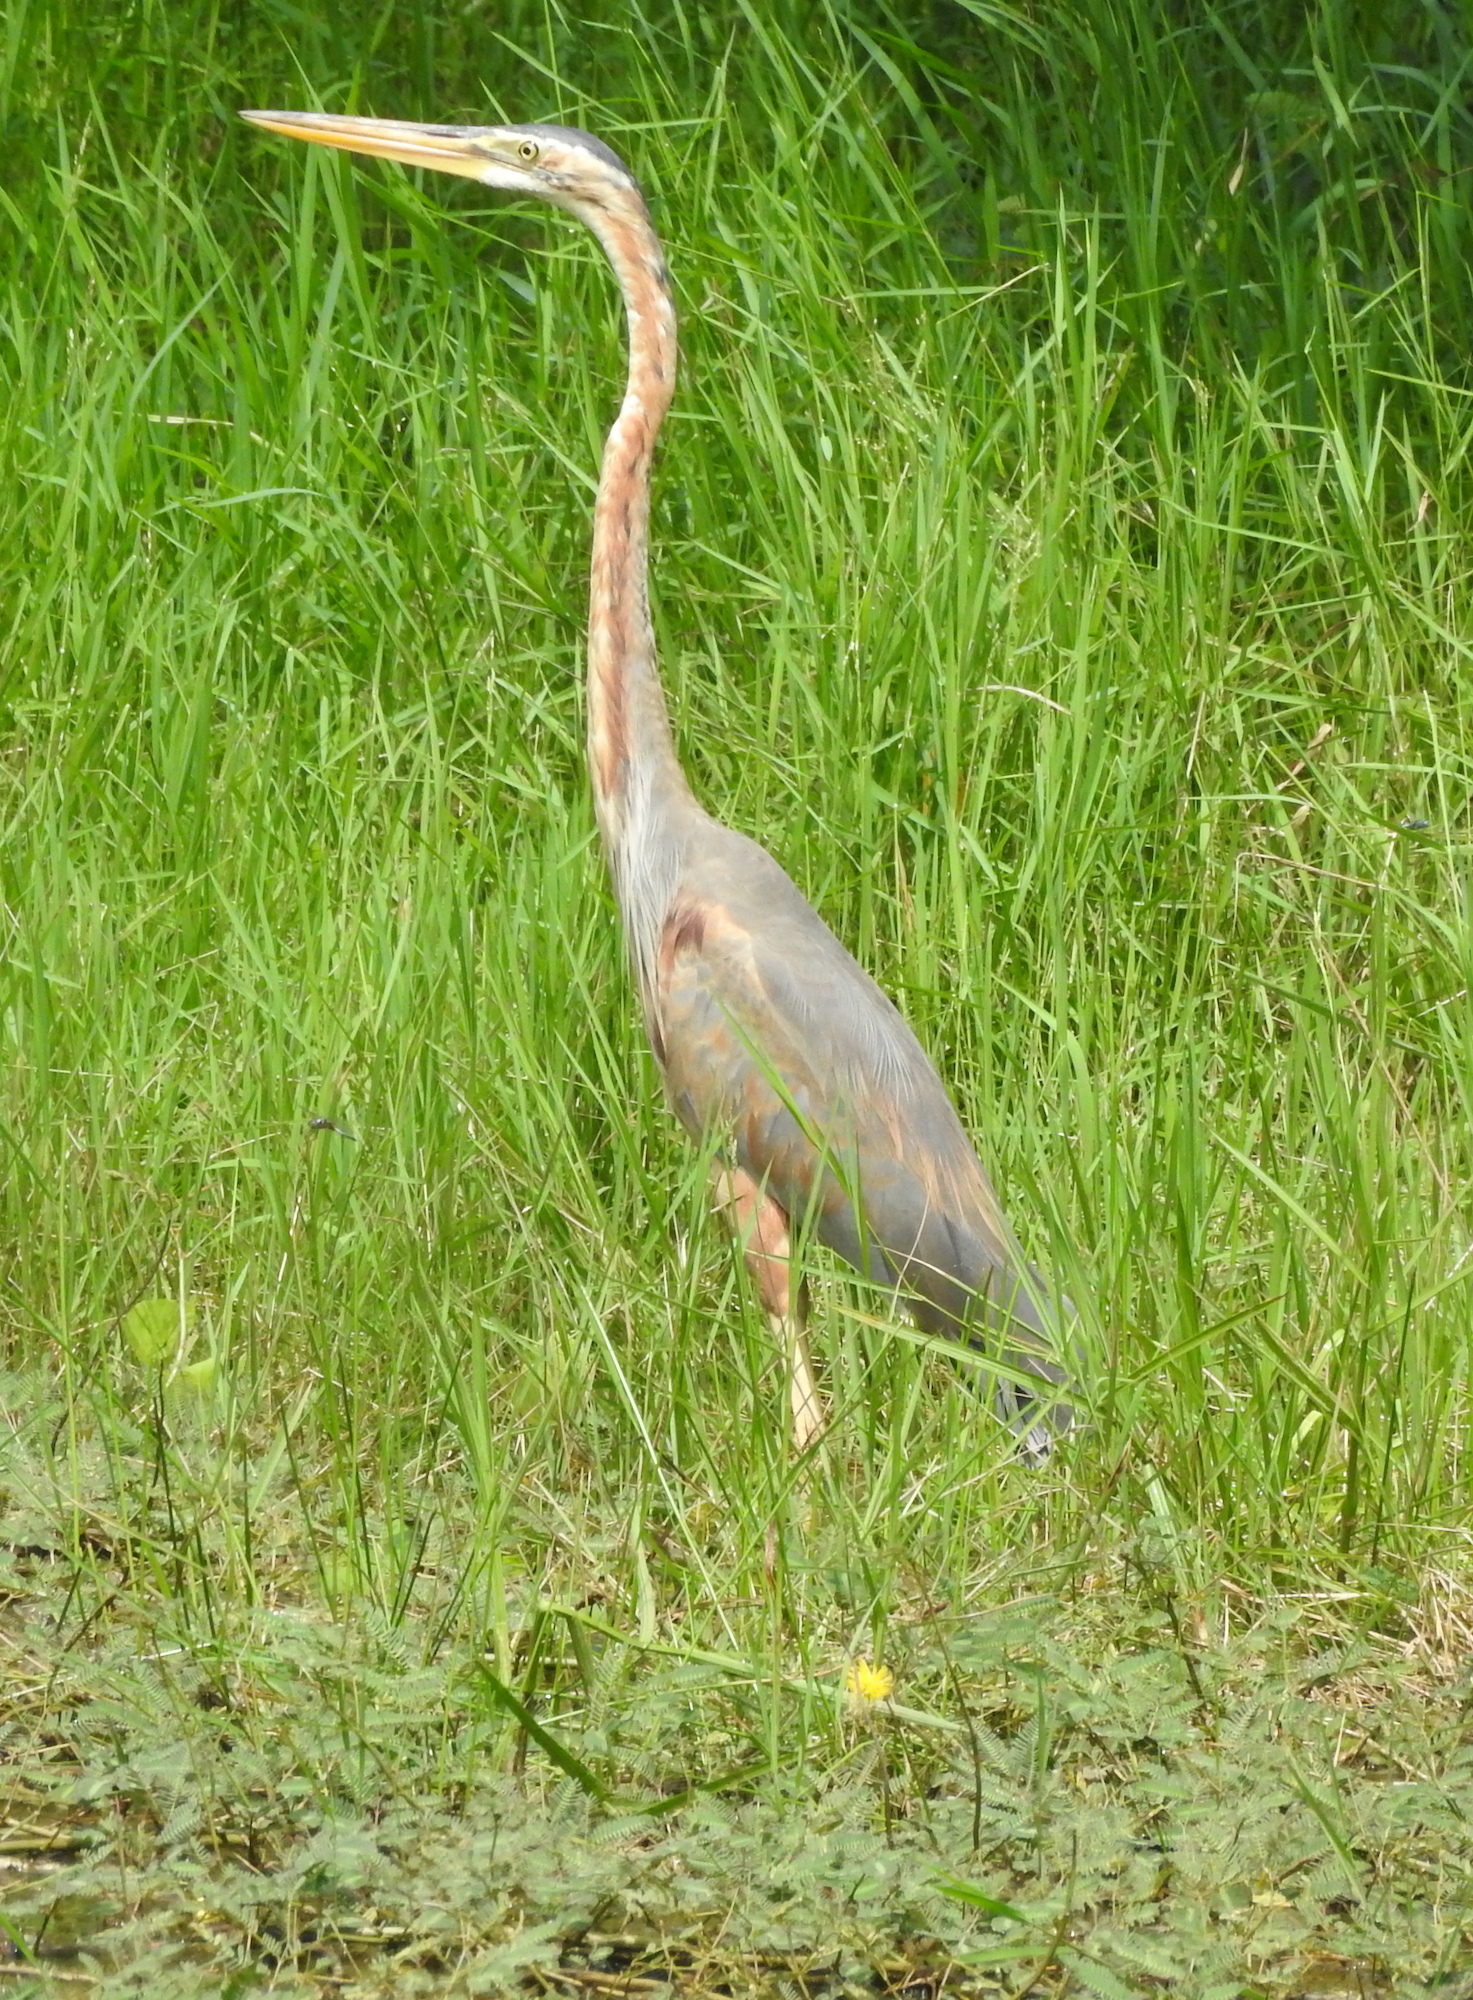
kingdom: Animalia
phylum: Chordata
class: Aves
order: Pelecaniformes
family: Ardeidae
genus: Ardea
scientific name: Ardea purpurea
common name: Purple heron
